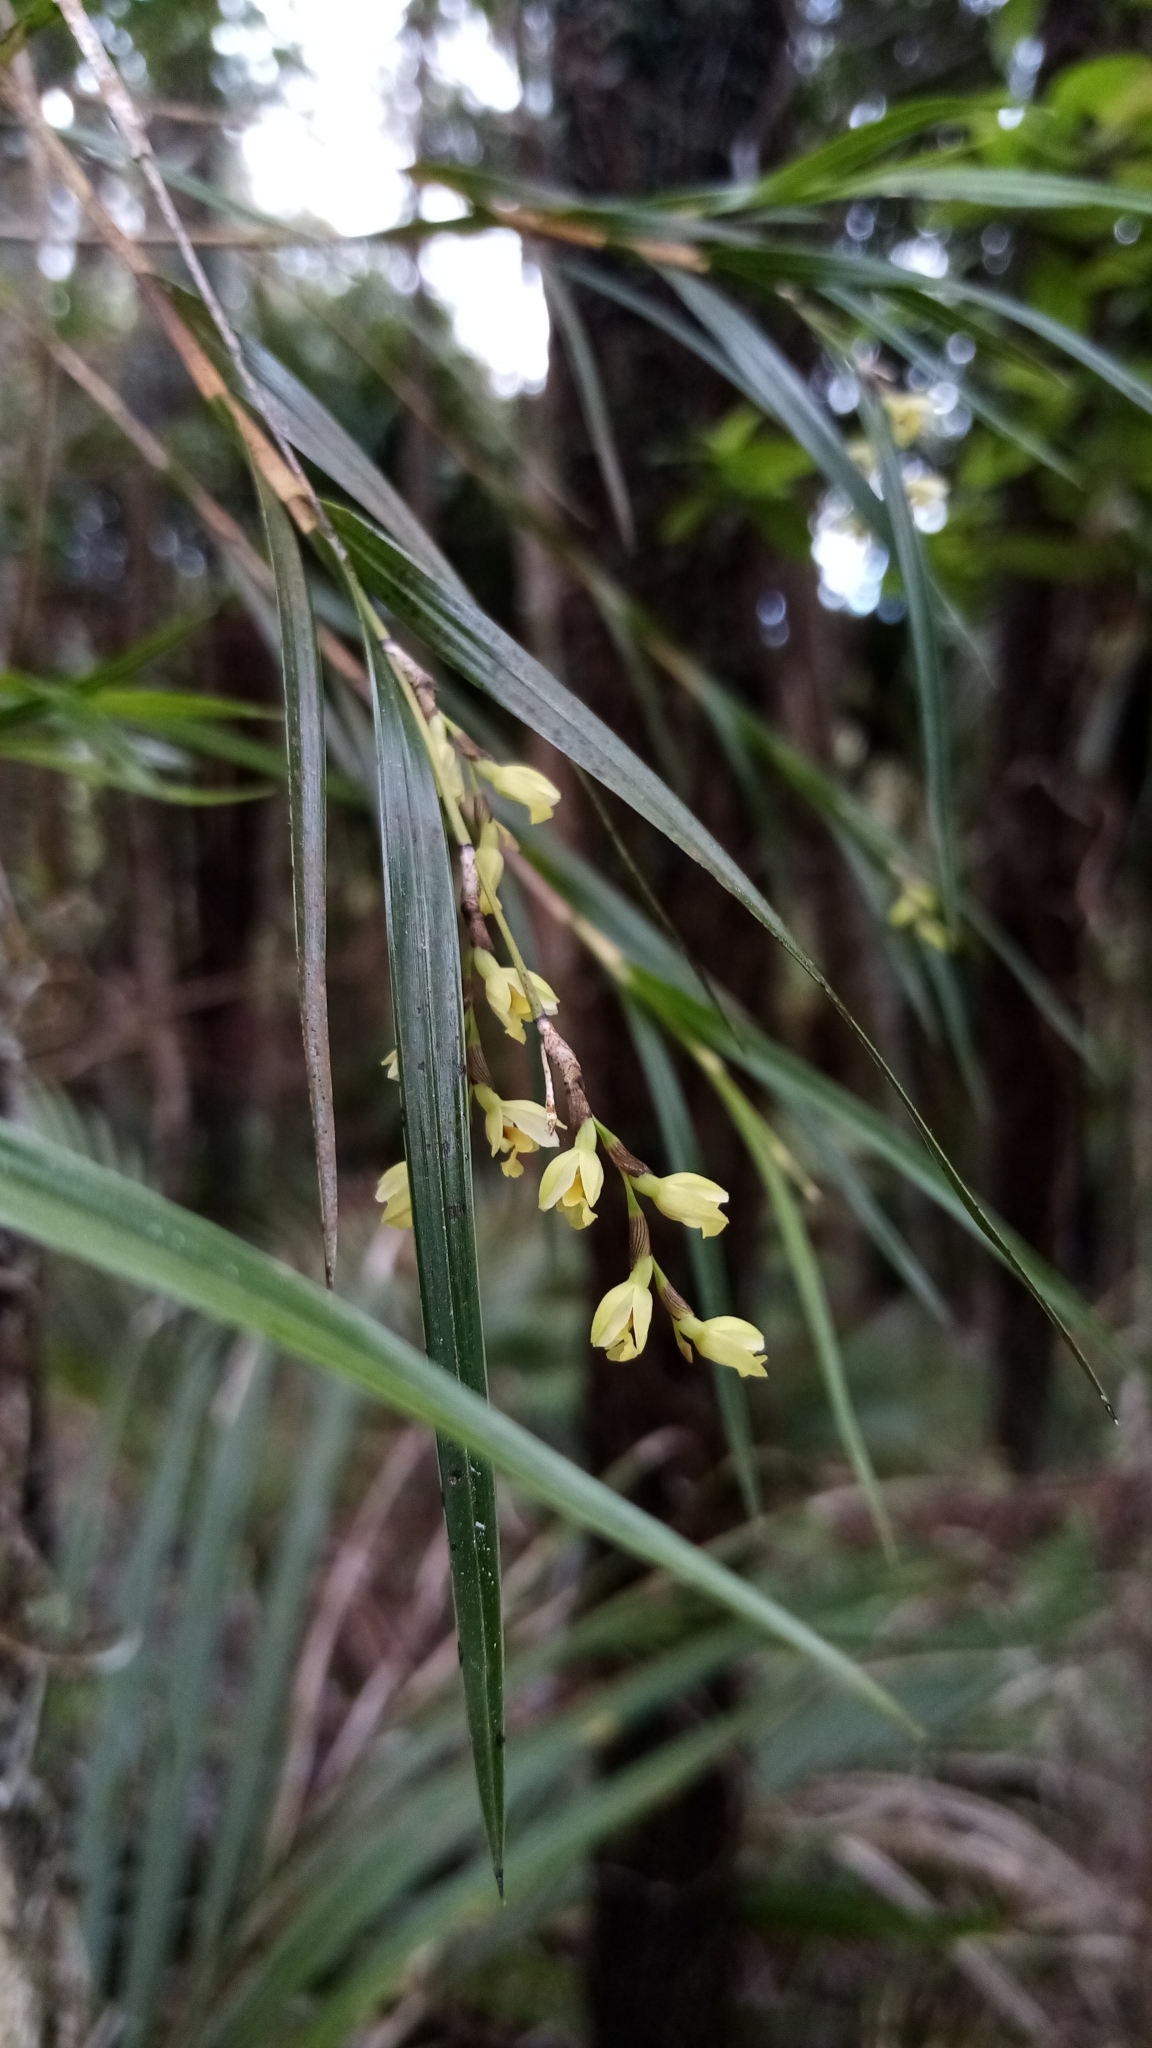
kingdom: Plantae
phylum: Tracheophyta
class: Liliopsida
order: Asparagales
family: Orchidaceae
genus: Earina
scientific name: Earina mucronata
